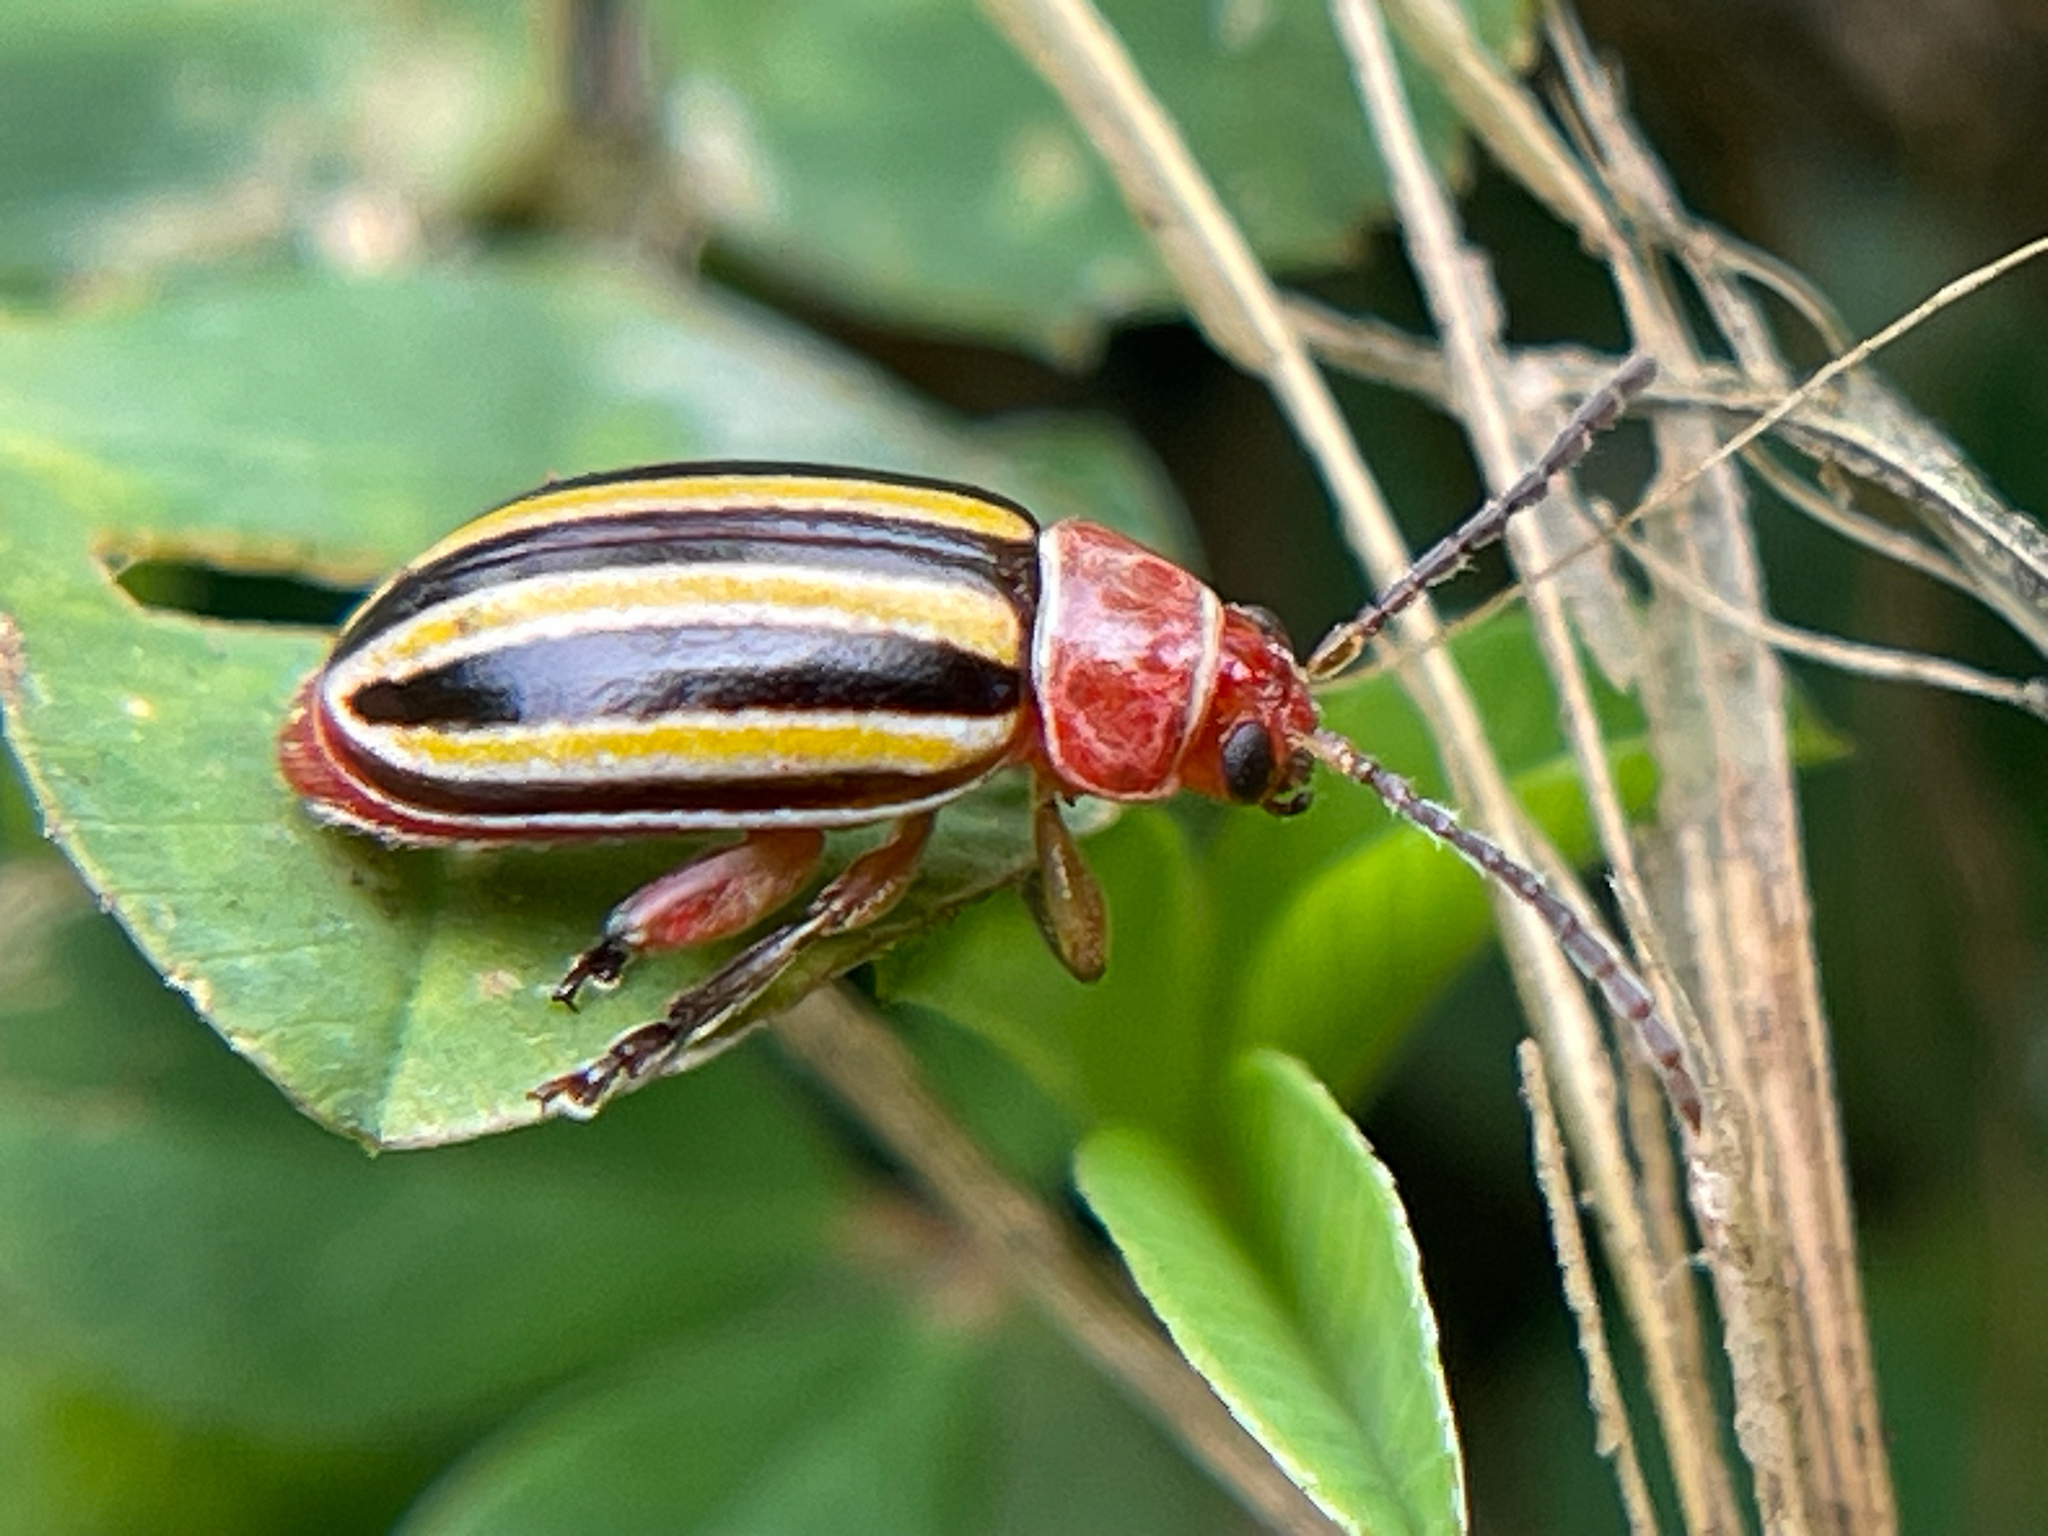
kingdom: Animalia
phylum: Arthropoda
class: Insecta
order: Coleoptera
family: Chrysomelidae
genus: Disonycha
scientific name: Disonycha admirabila
